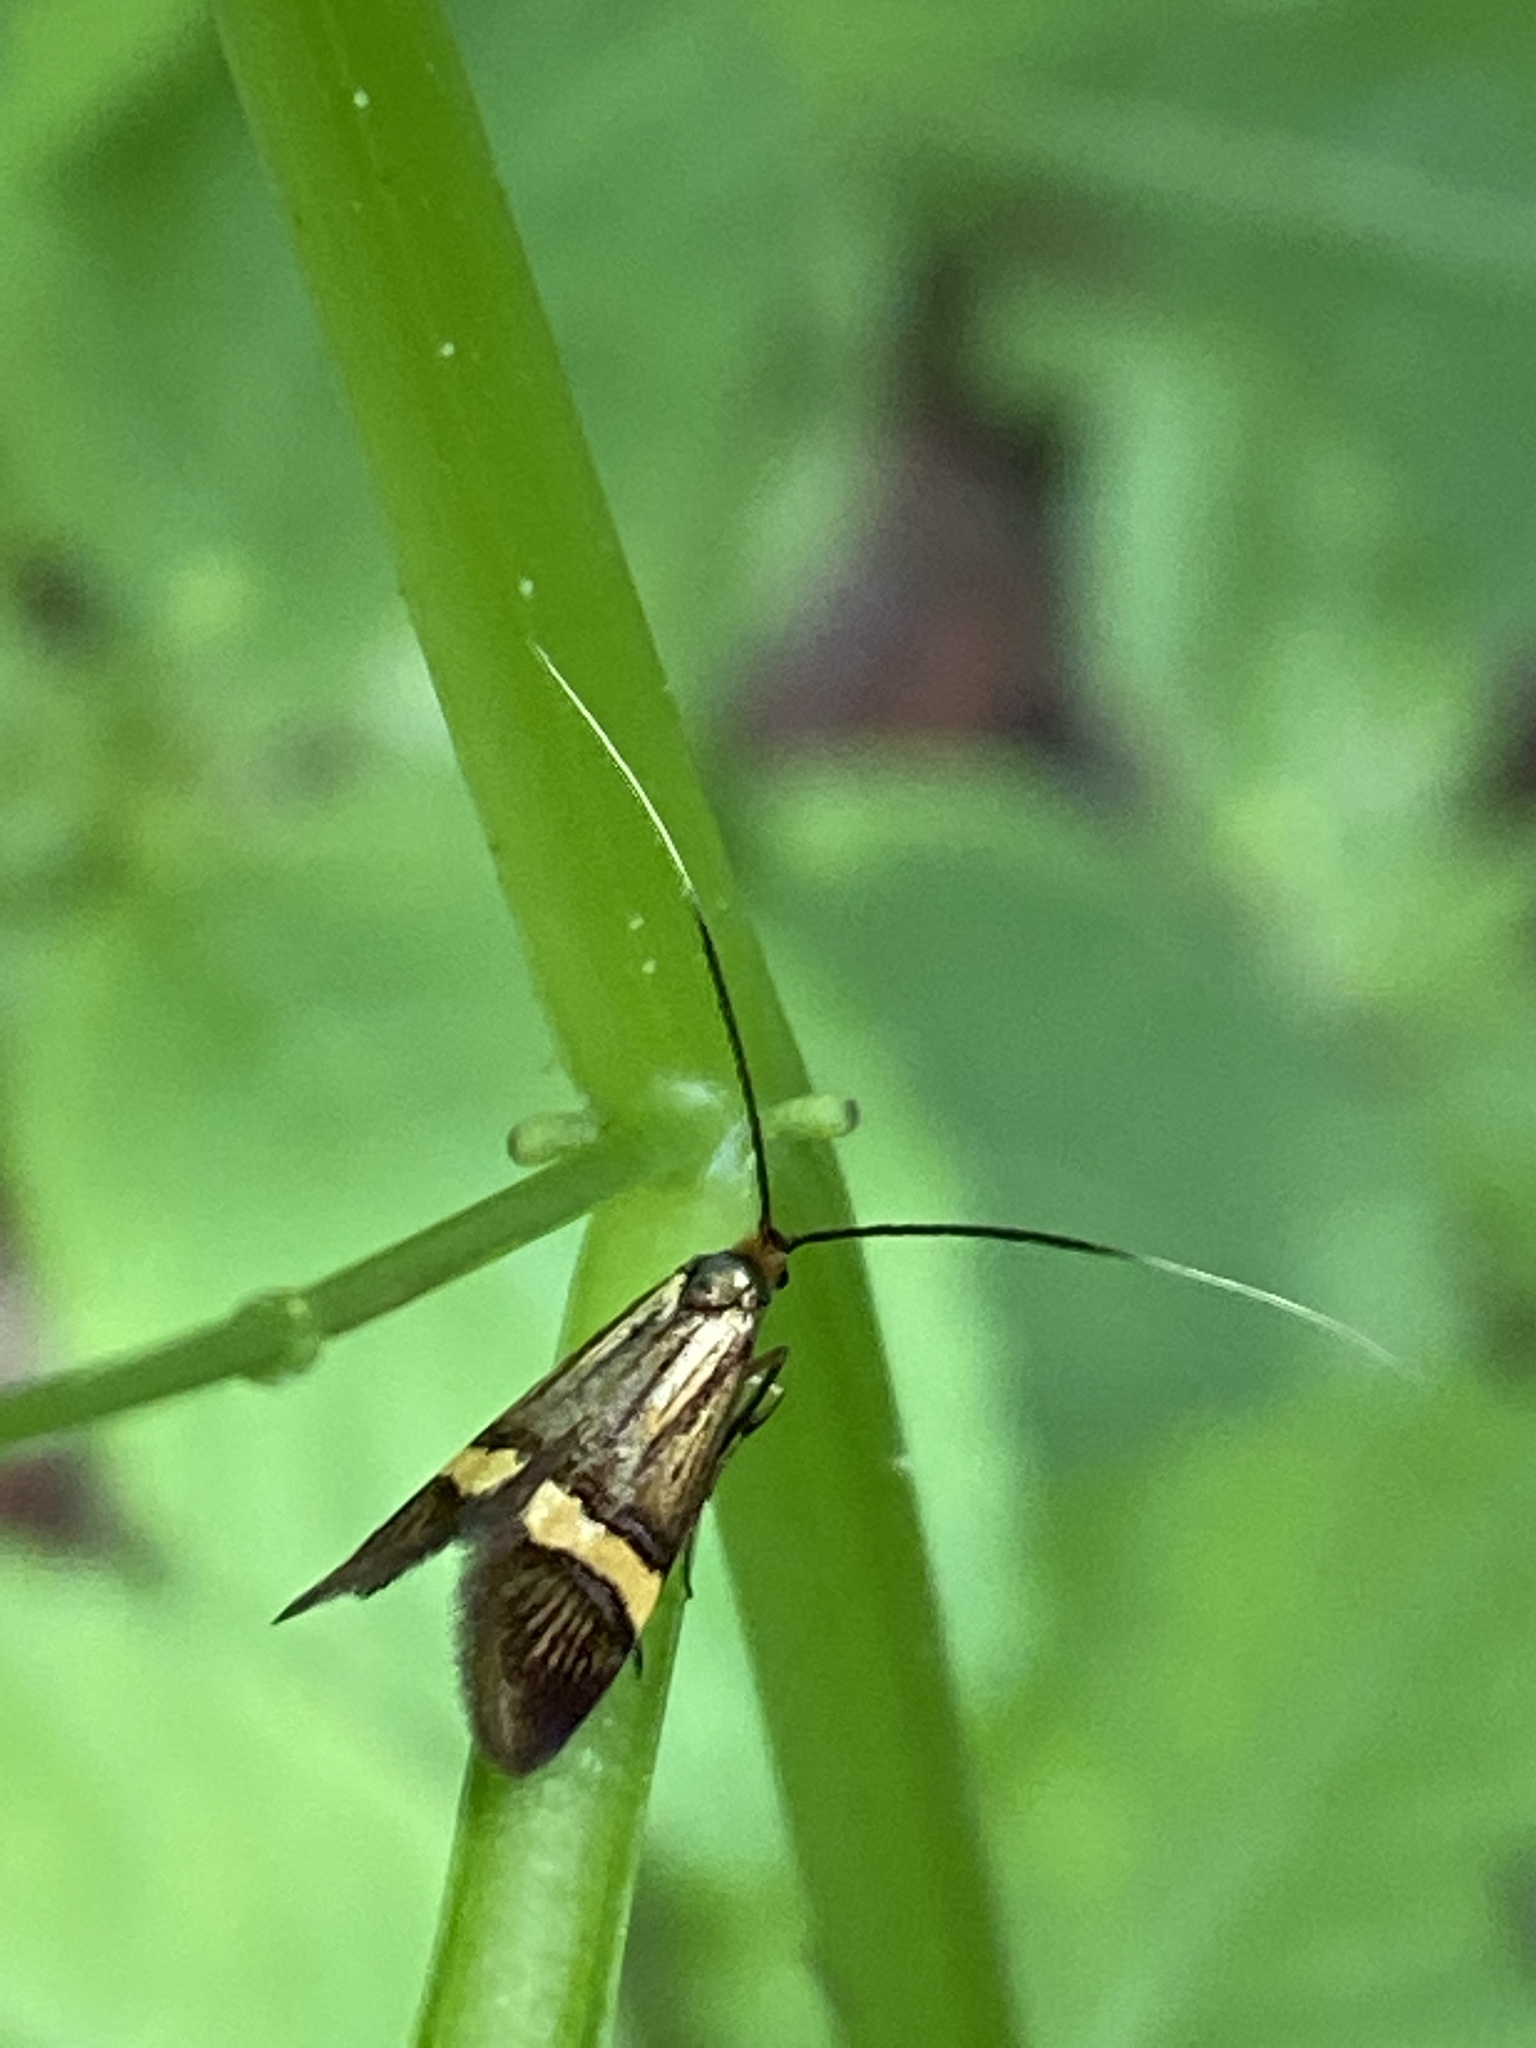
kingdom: Animalia
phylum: Arthropoda
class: Insecta
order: Lepidoptera
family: Adelidae
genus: Nemophora
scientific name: Nemophora degeerella
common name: Yellow-barred long-horn
